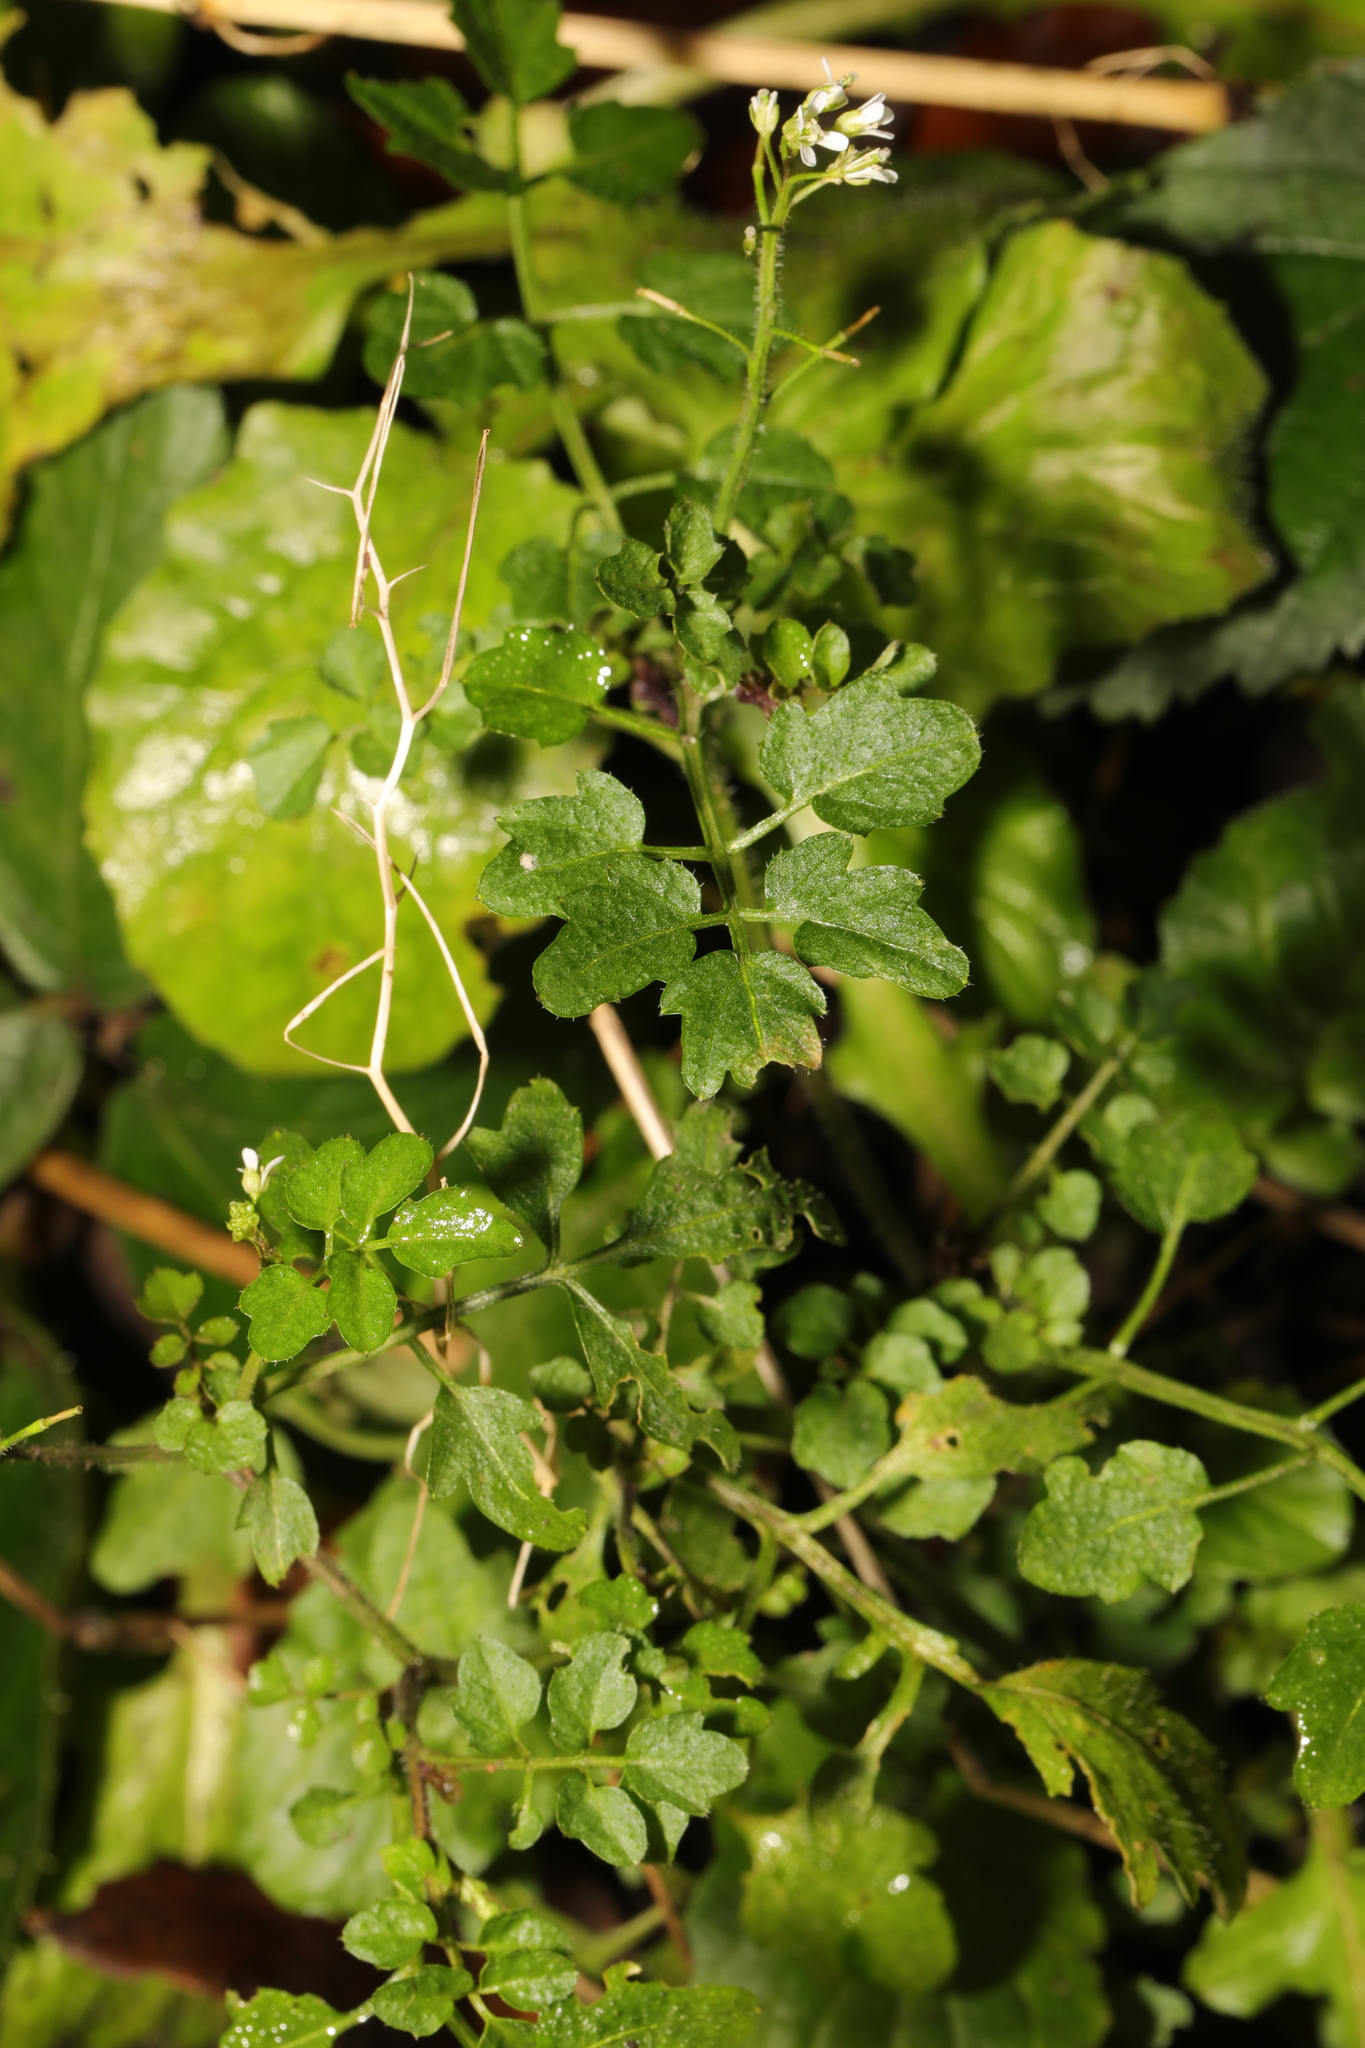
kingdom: Plantae
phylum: Tracheophyta
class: Magnoliopsida
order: Brassicales
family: Brassicaceae
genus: Cardamine
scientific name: Cardamine flexuosa
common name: Woodland bittercress
